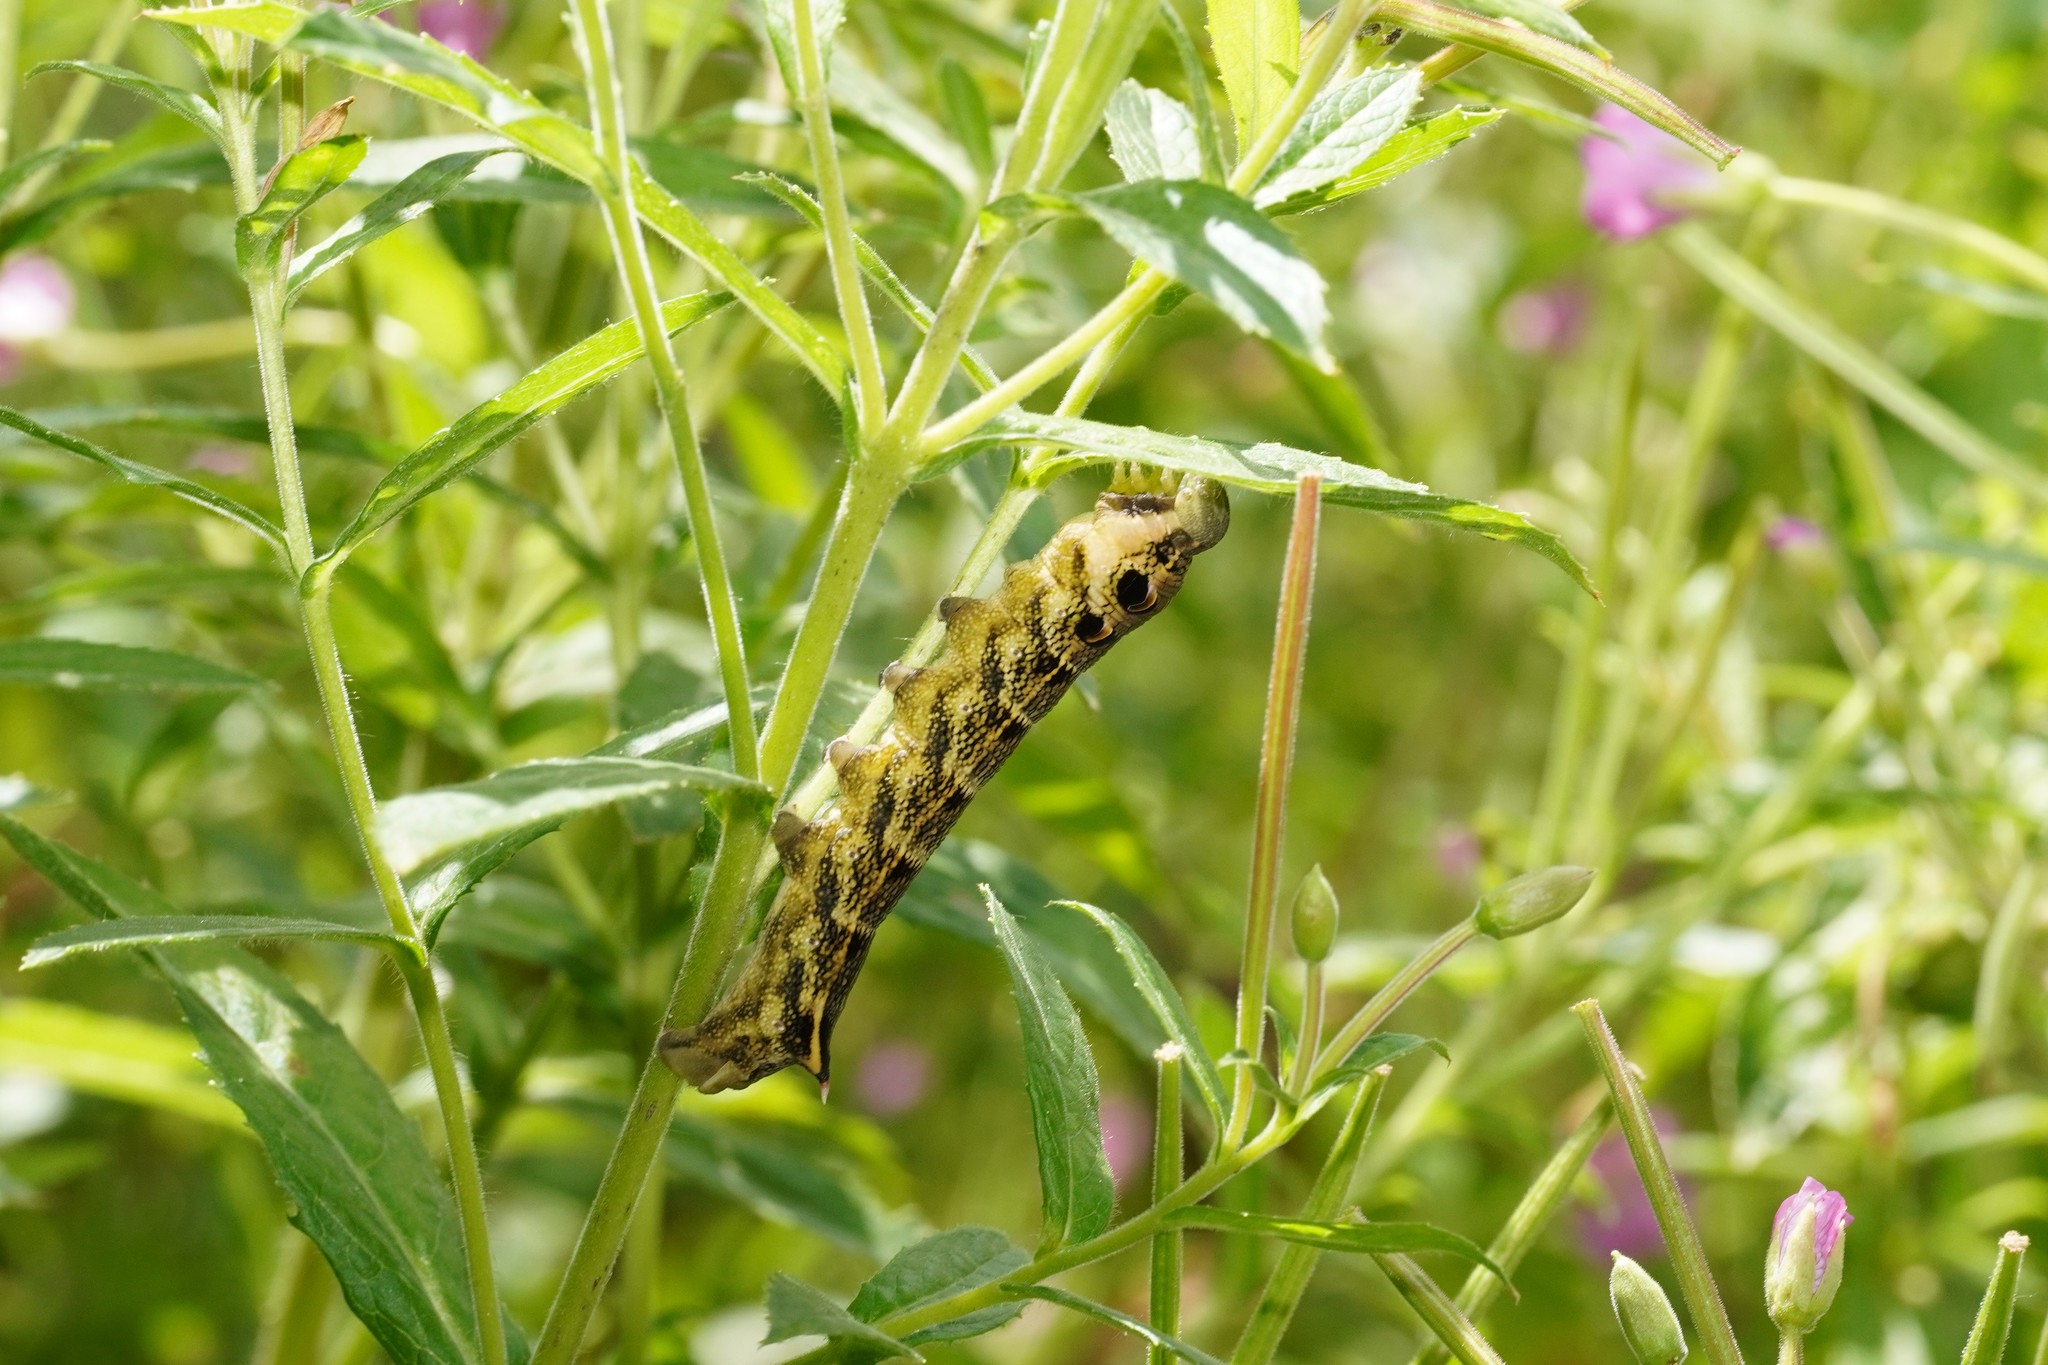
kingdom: Animalia
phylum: Arthropoda
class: Insecta
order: Lepidoptera
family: Sphingidae
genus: Deilephila
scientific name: Deilephila elpenor
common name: Elephant hawk-moth
